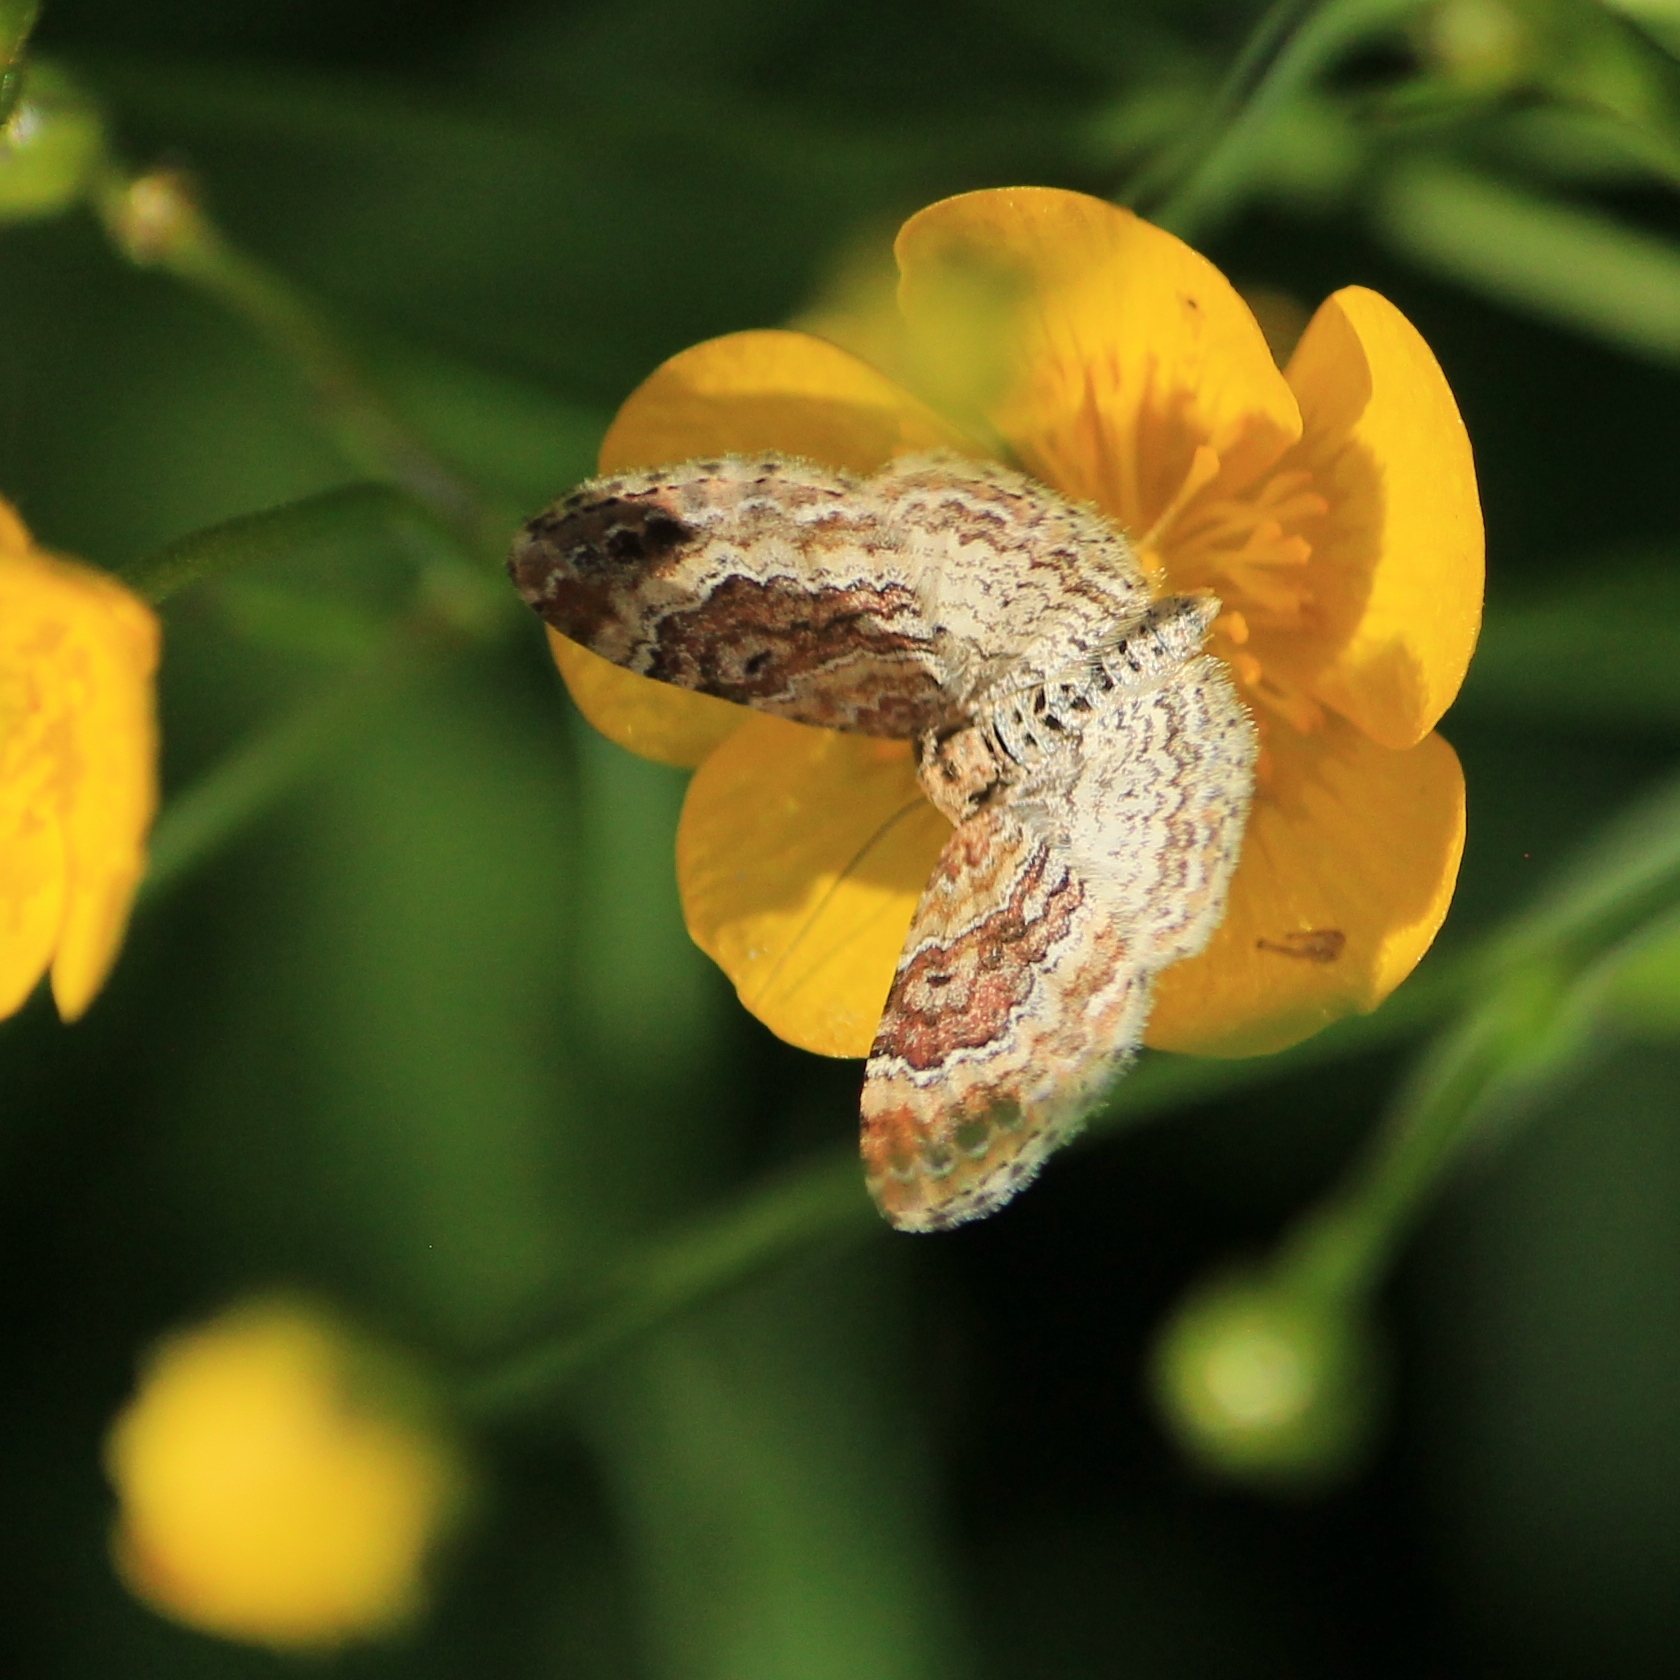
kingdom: Animalia
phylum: Arthropoda
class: Insecta
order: Lepidoptera
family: Geometridae
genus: Xanthorhoe
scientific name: Xanthorhoe spadicearia
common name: Red twin-spot carpet
